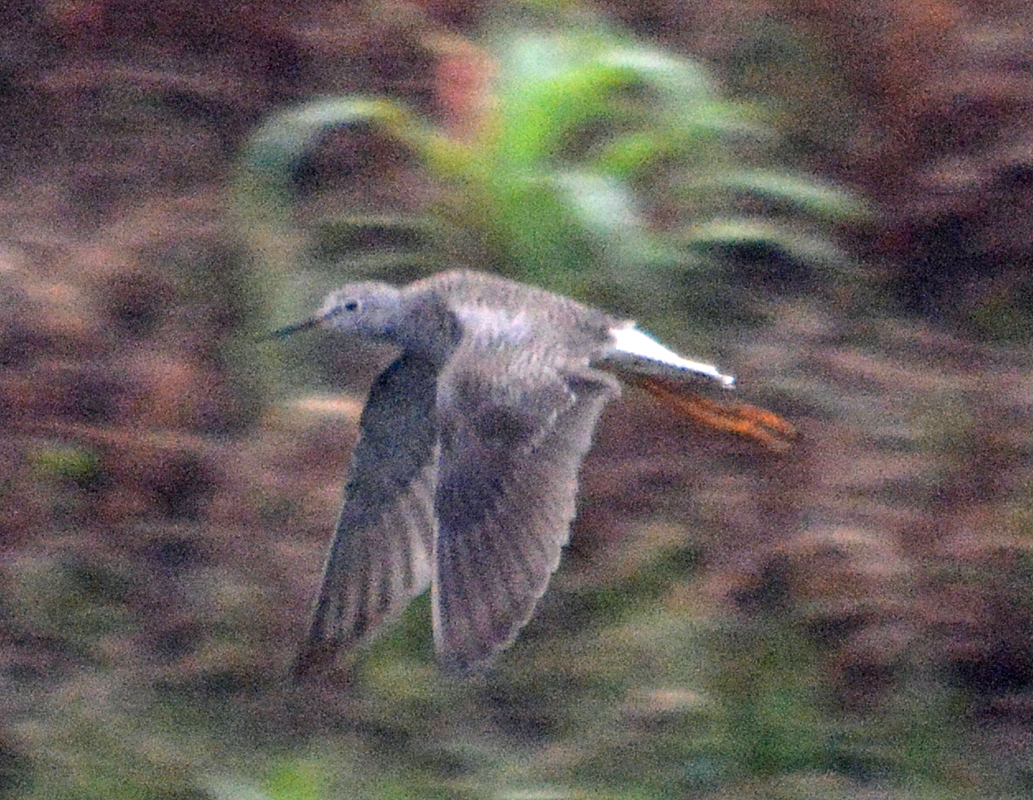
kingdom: Animalia
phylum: Chordata
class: Aves
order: Charadriiformes
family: Scolopacidae
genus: Tringa
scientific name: Tringa flavipes
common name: Lesser yellowlegs
